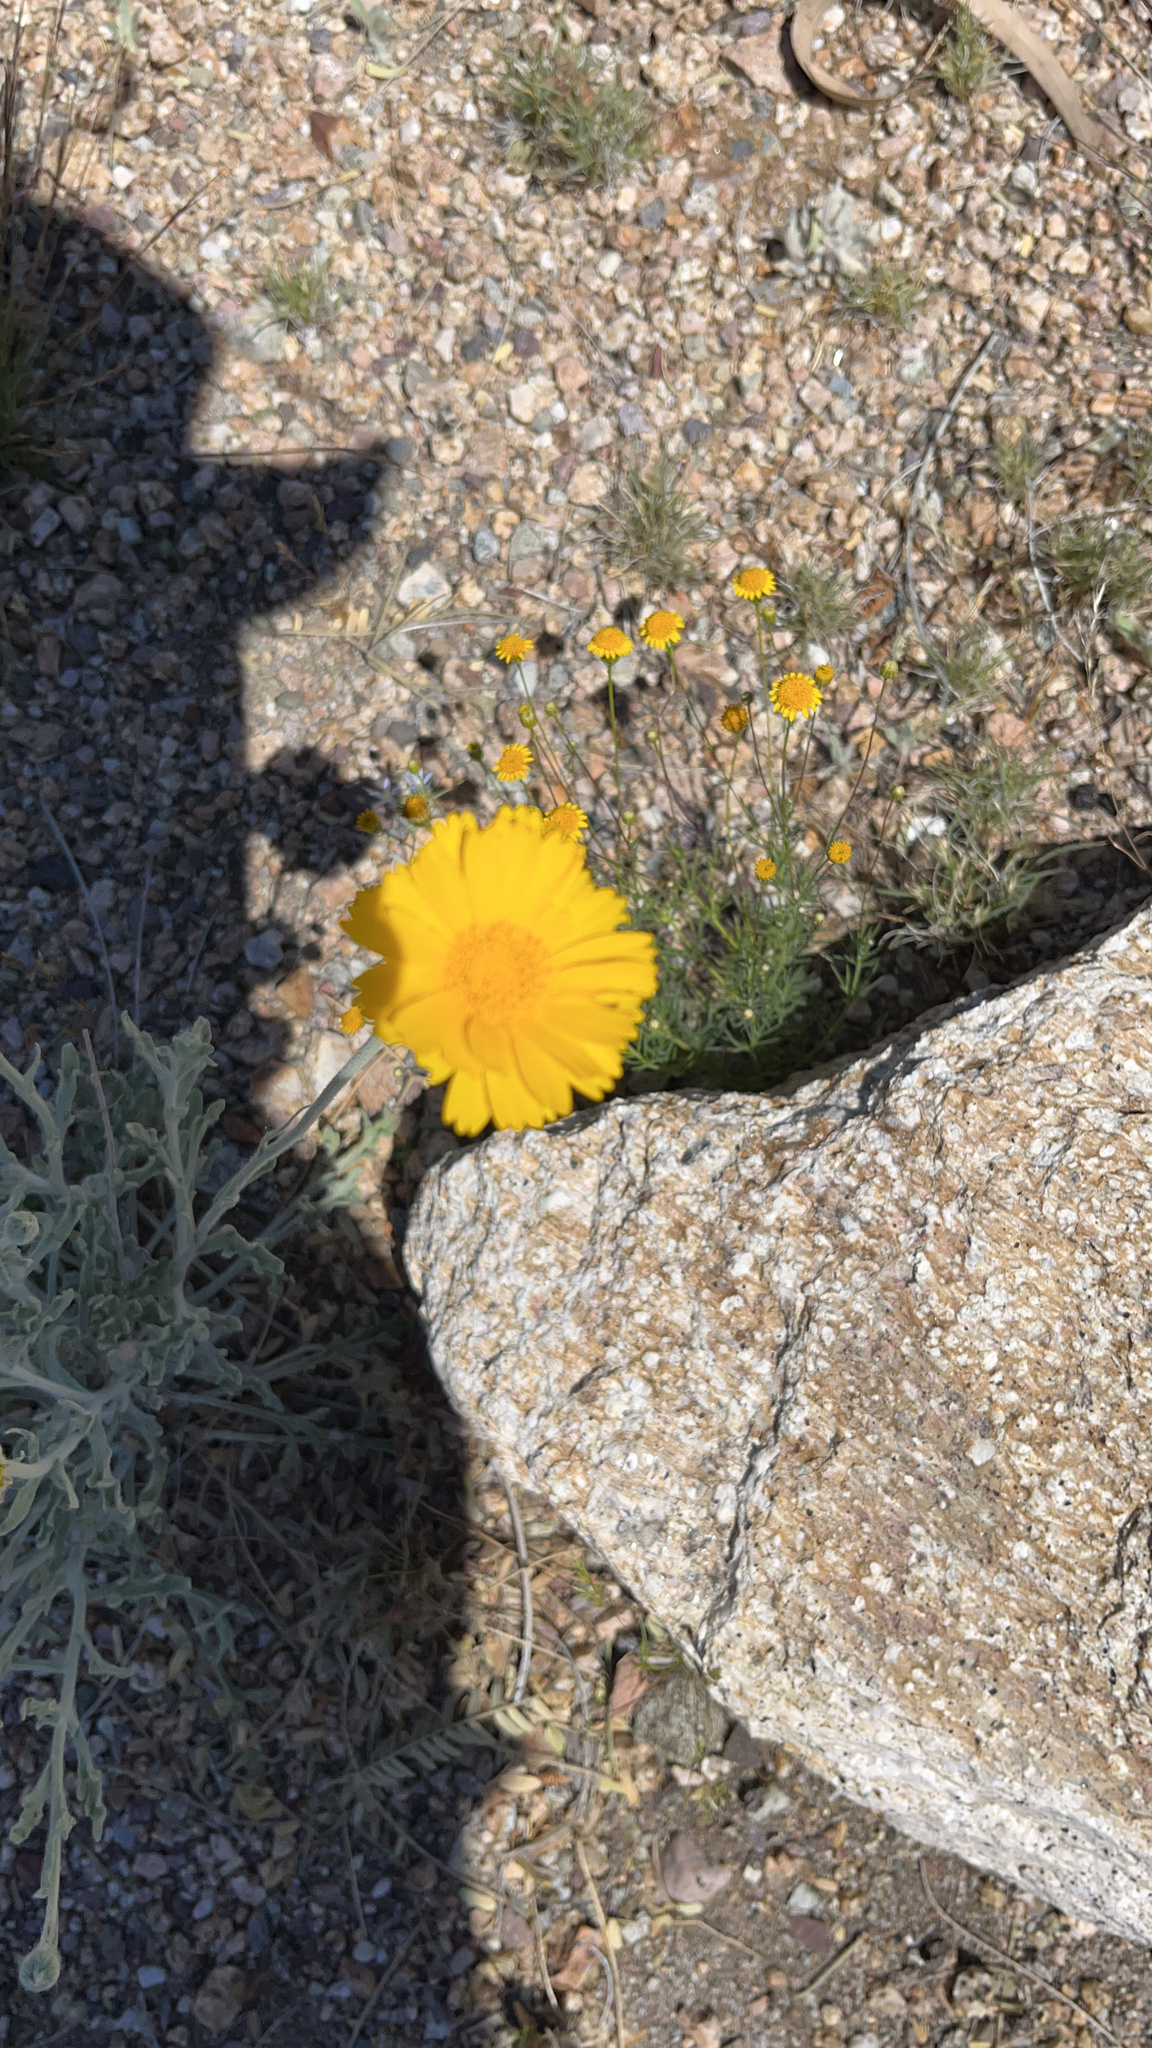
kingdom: Plantae
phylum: Tracheophyta
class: Magnoliopsida
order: Asterales
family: Asteraceae
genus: Baileya
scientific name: Baileya multiradiata
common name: Desert-marigold
